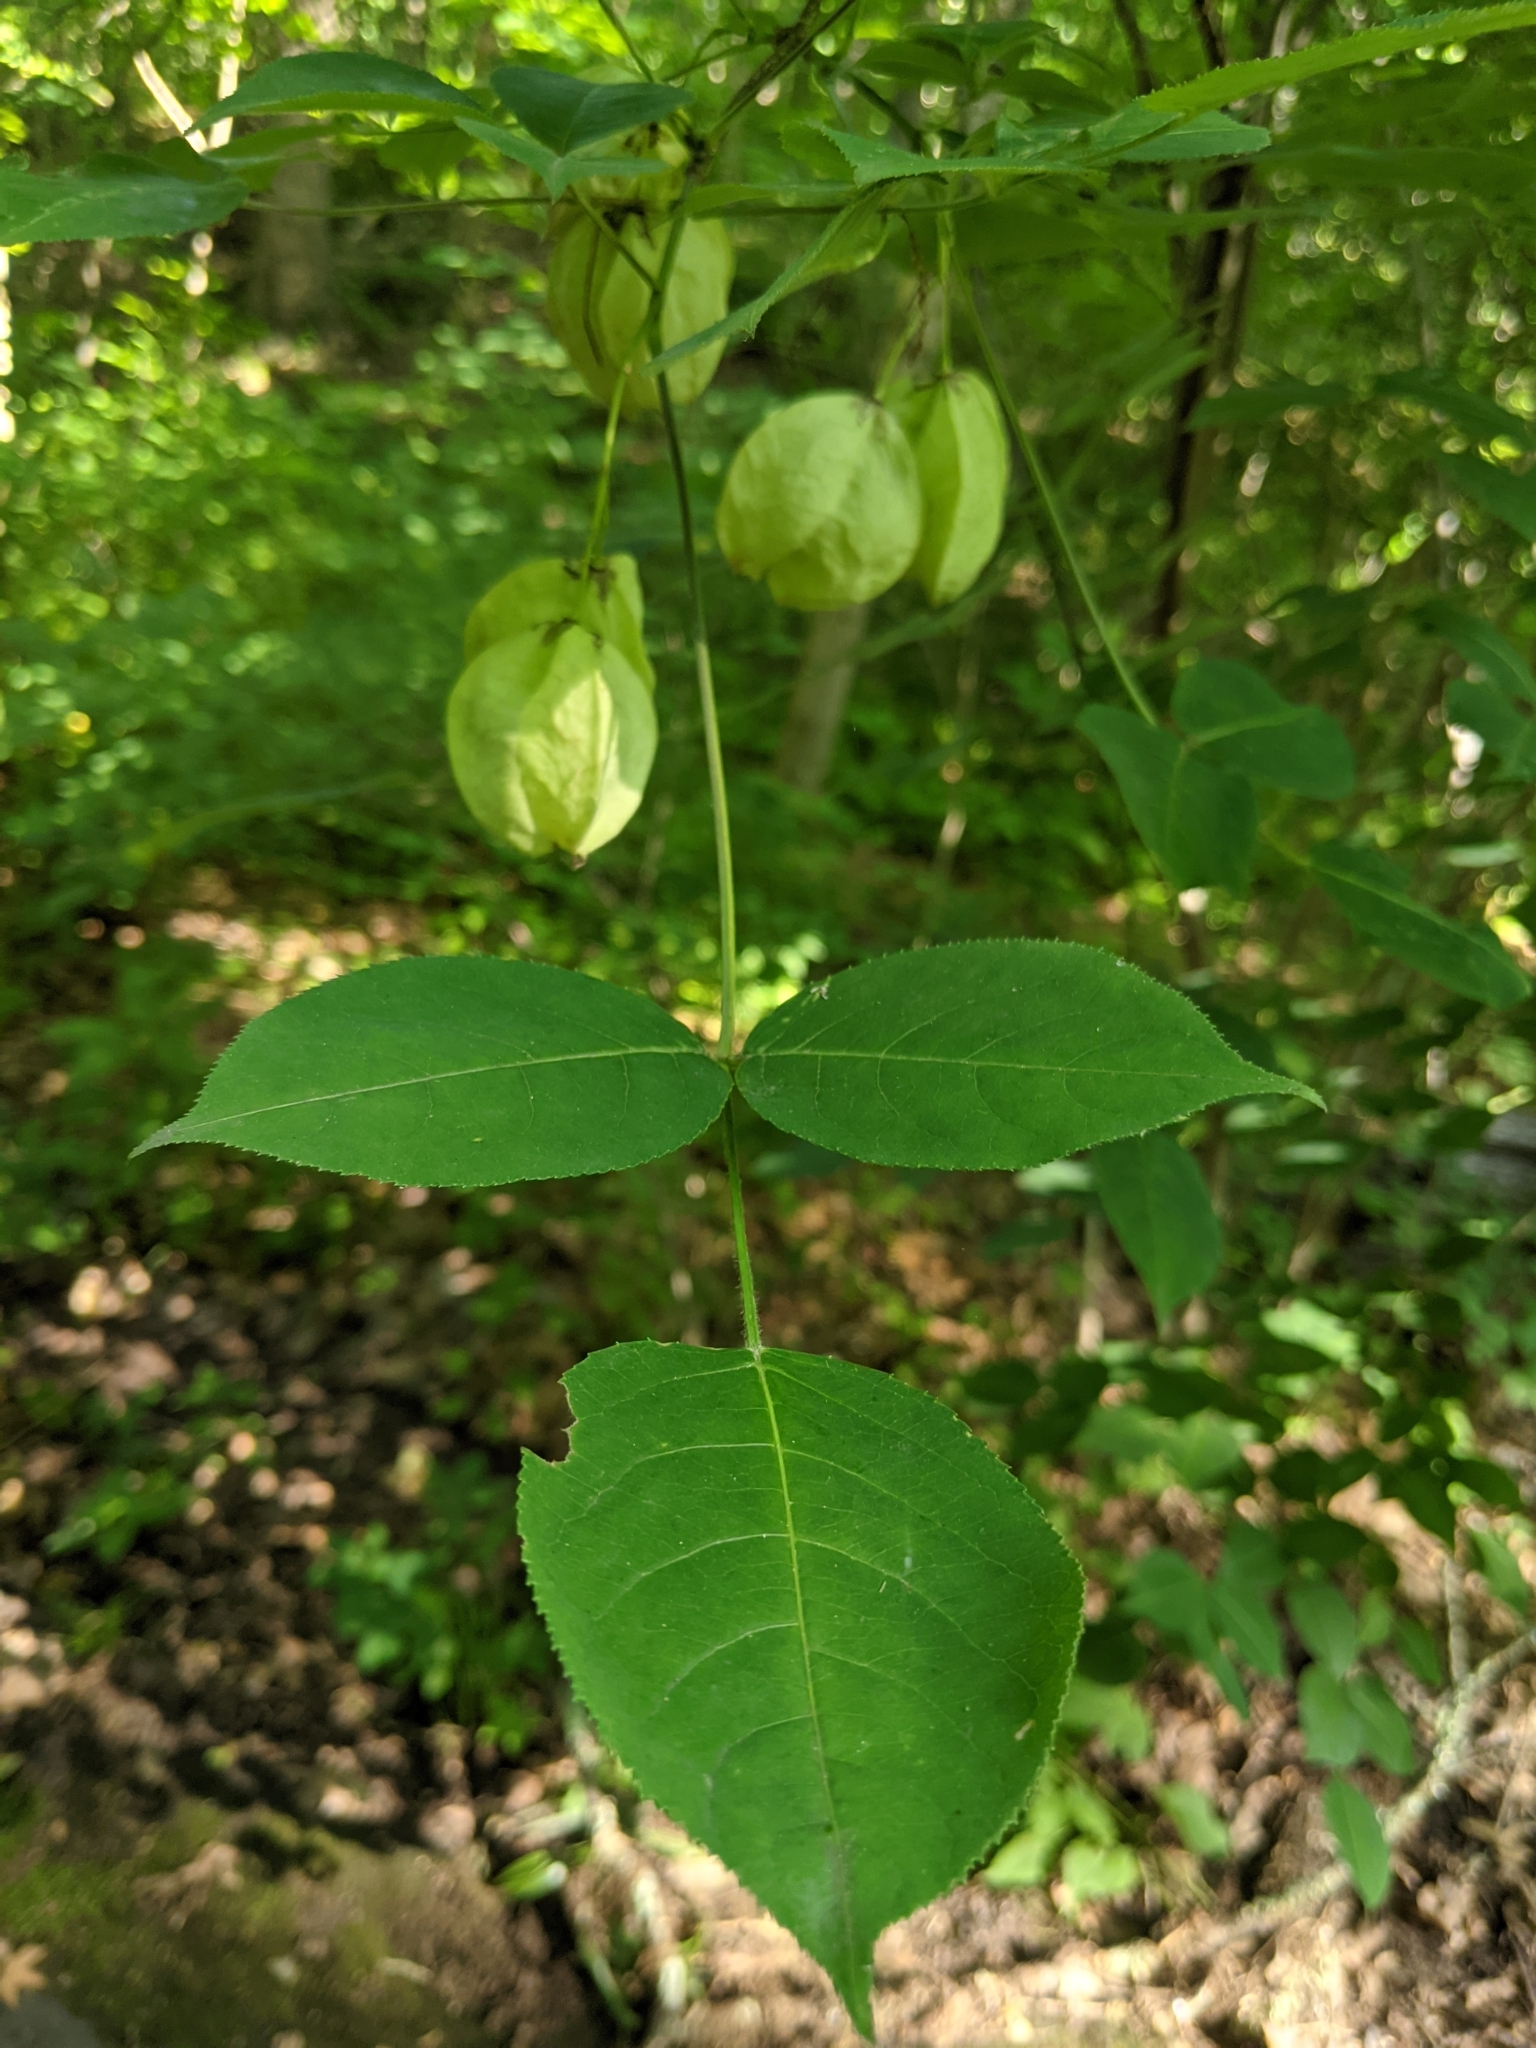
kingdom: Plantae
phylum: Tracheophyta
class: Magnoliopsida
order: Crossosomatales
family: Staphyleaceae
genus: Staphylea
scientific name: Staphylea trifolia
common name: American bladdernut
